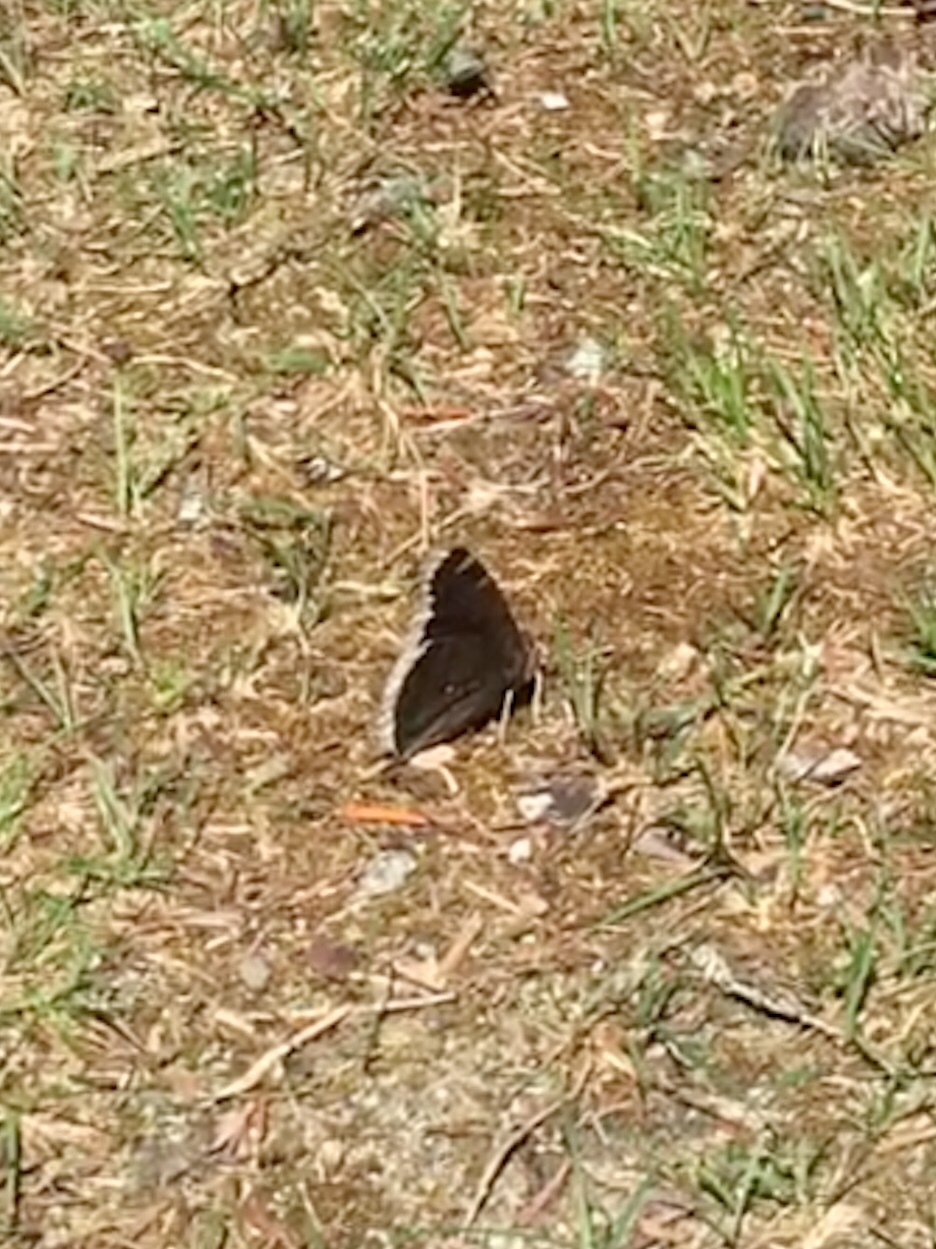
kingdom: Animalia
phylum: Arthropoda
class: Insecta
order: Lepidoptera
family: Nymphalidae
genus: Nymphalis
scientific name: Nymphalis antiopa
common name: Camberwell beauty
